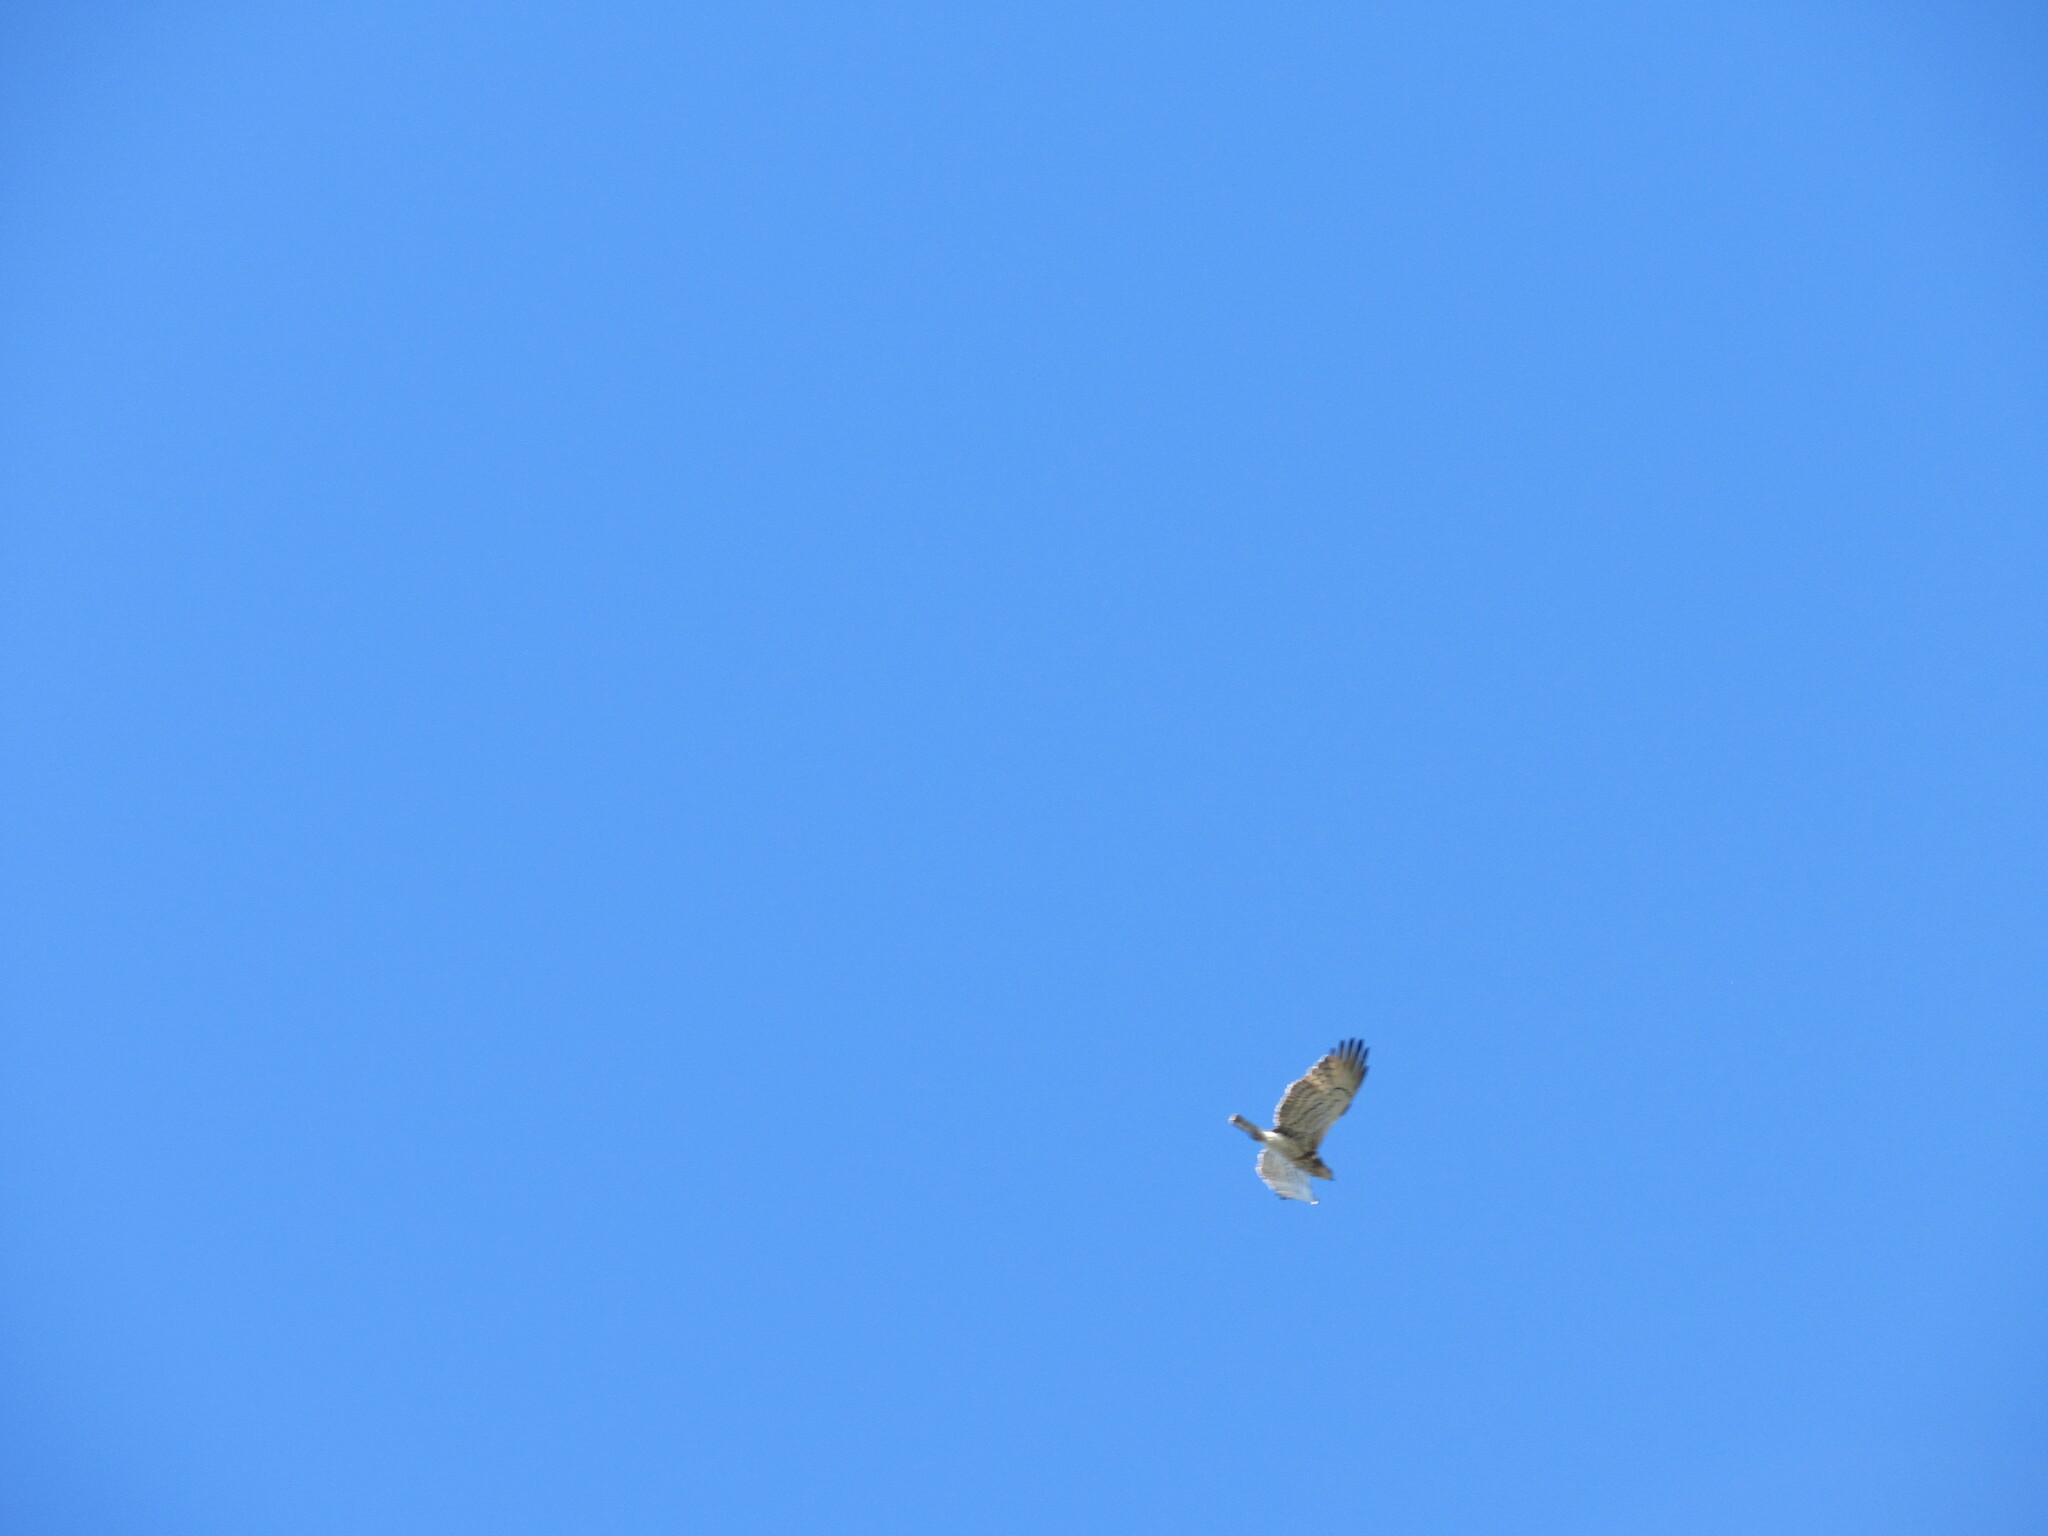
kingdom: Animalia
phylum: Chordata
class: Aves
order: Accipitriformes
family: Accipitridae
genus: Circaetus
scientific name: Circaetus gallicus
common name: Short-toed snake eagle
